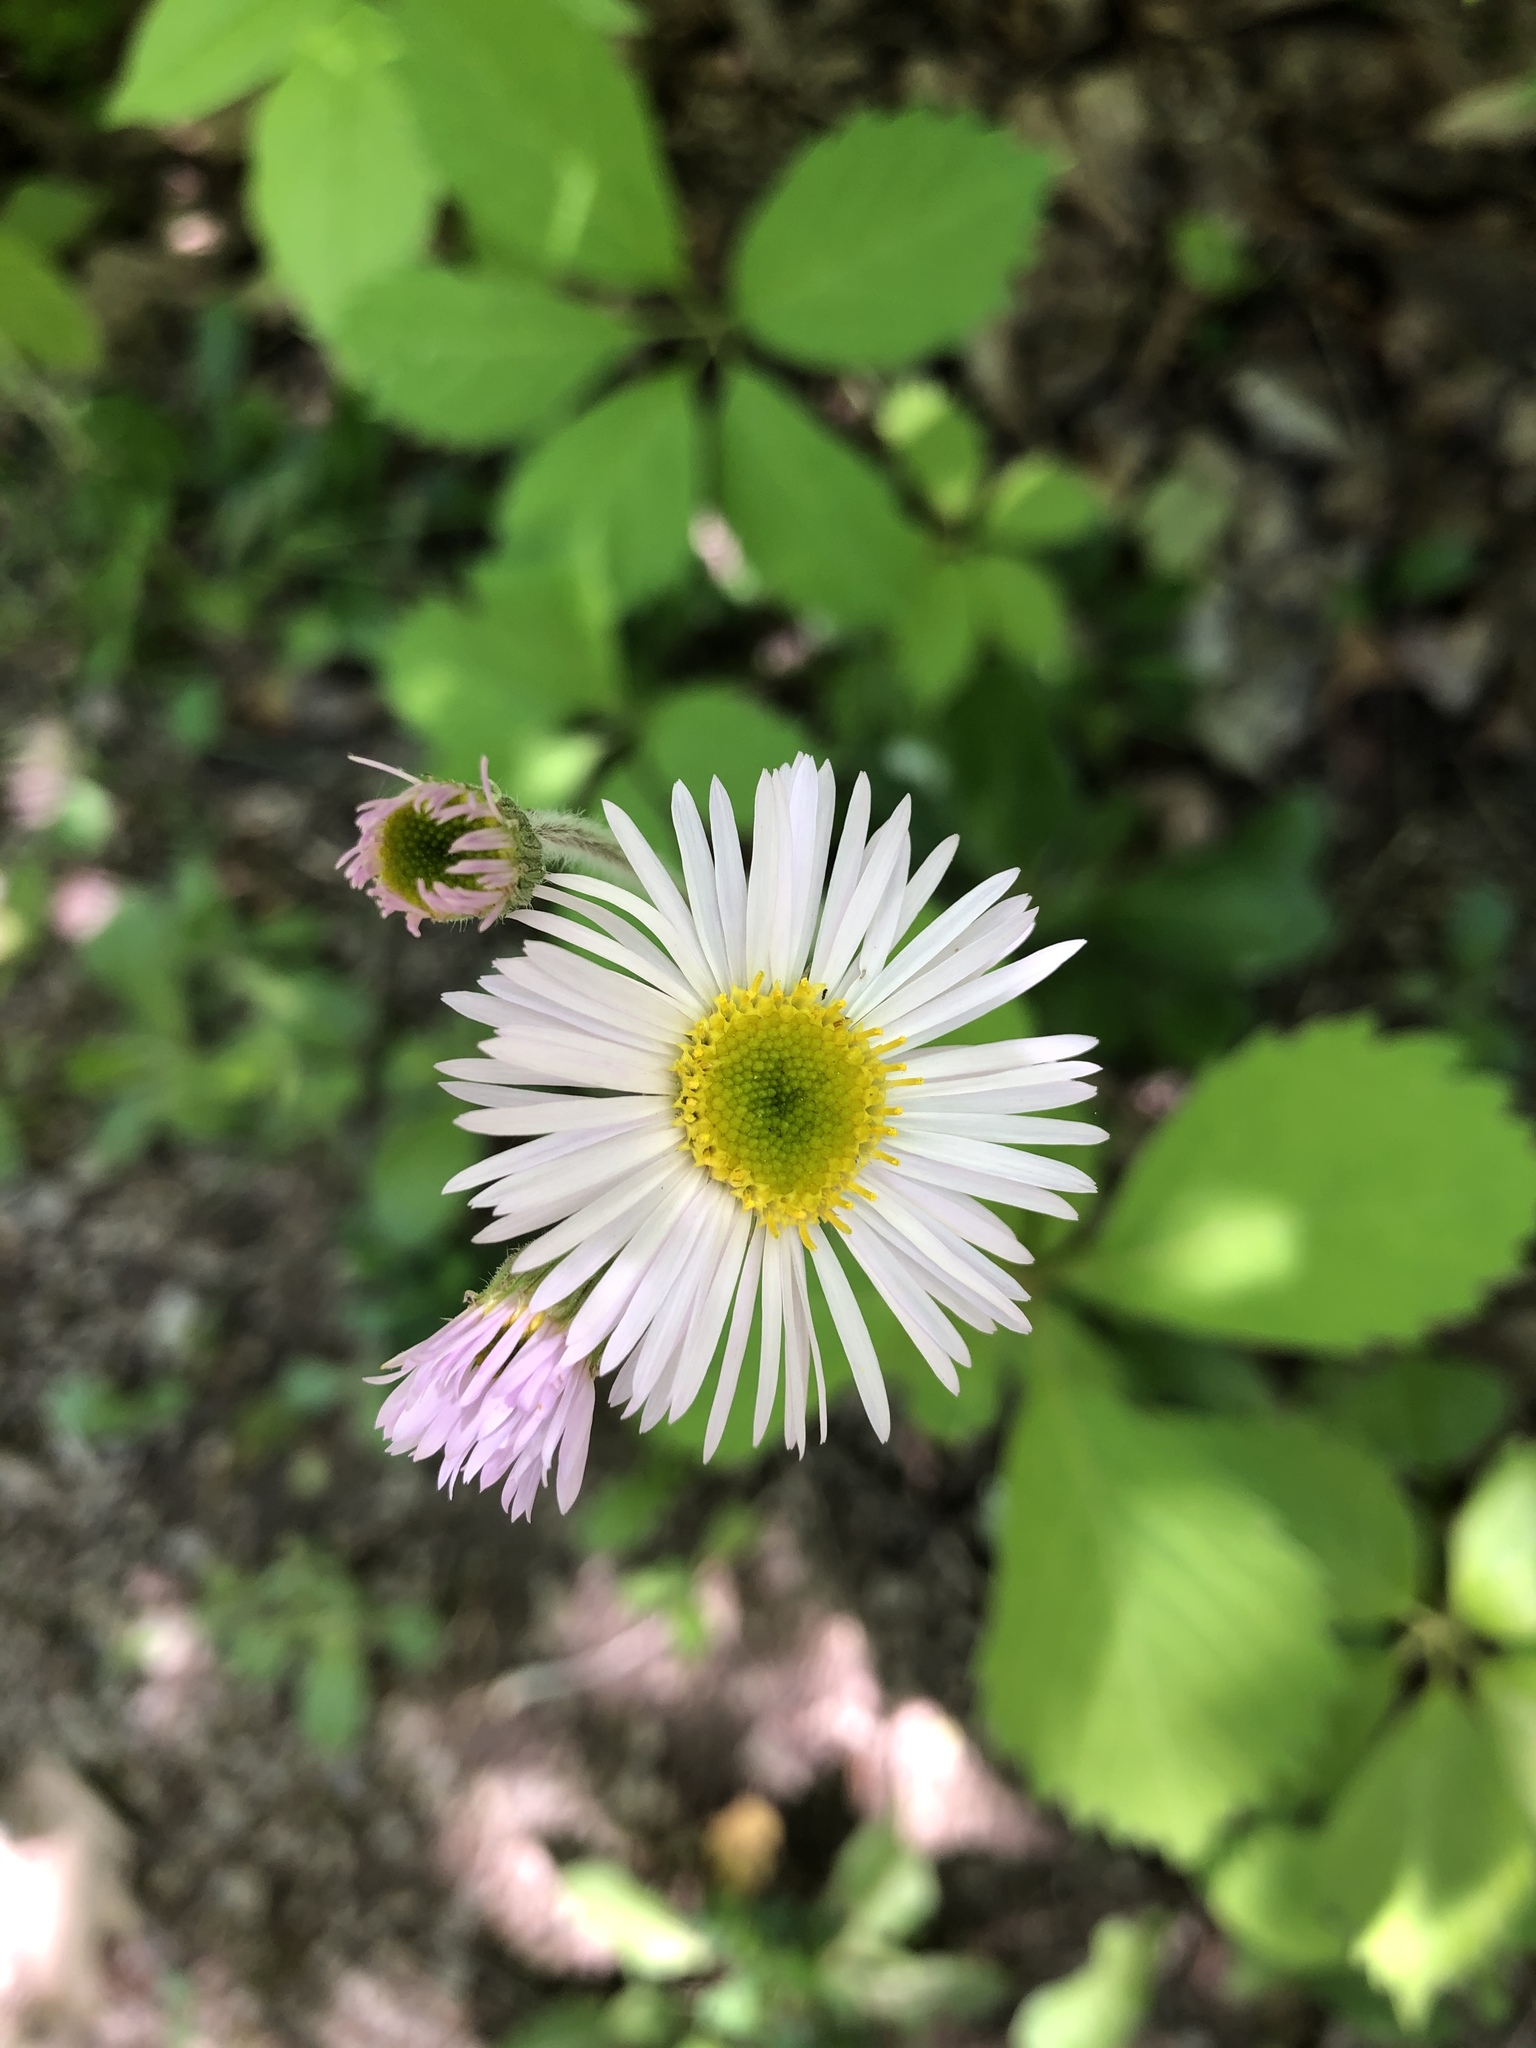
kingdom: Plantae
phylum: Tracheophyta
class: Magnoliopsida
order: Asterales
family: Asteraceae
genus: Erigeron
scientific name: Erigeron pulchellus
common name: Hairy fleabane
